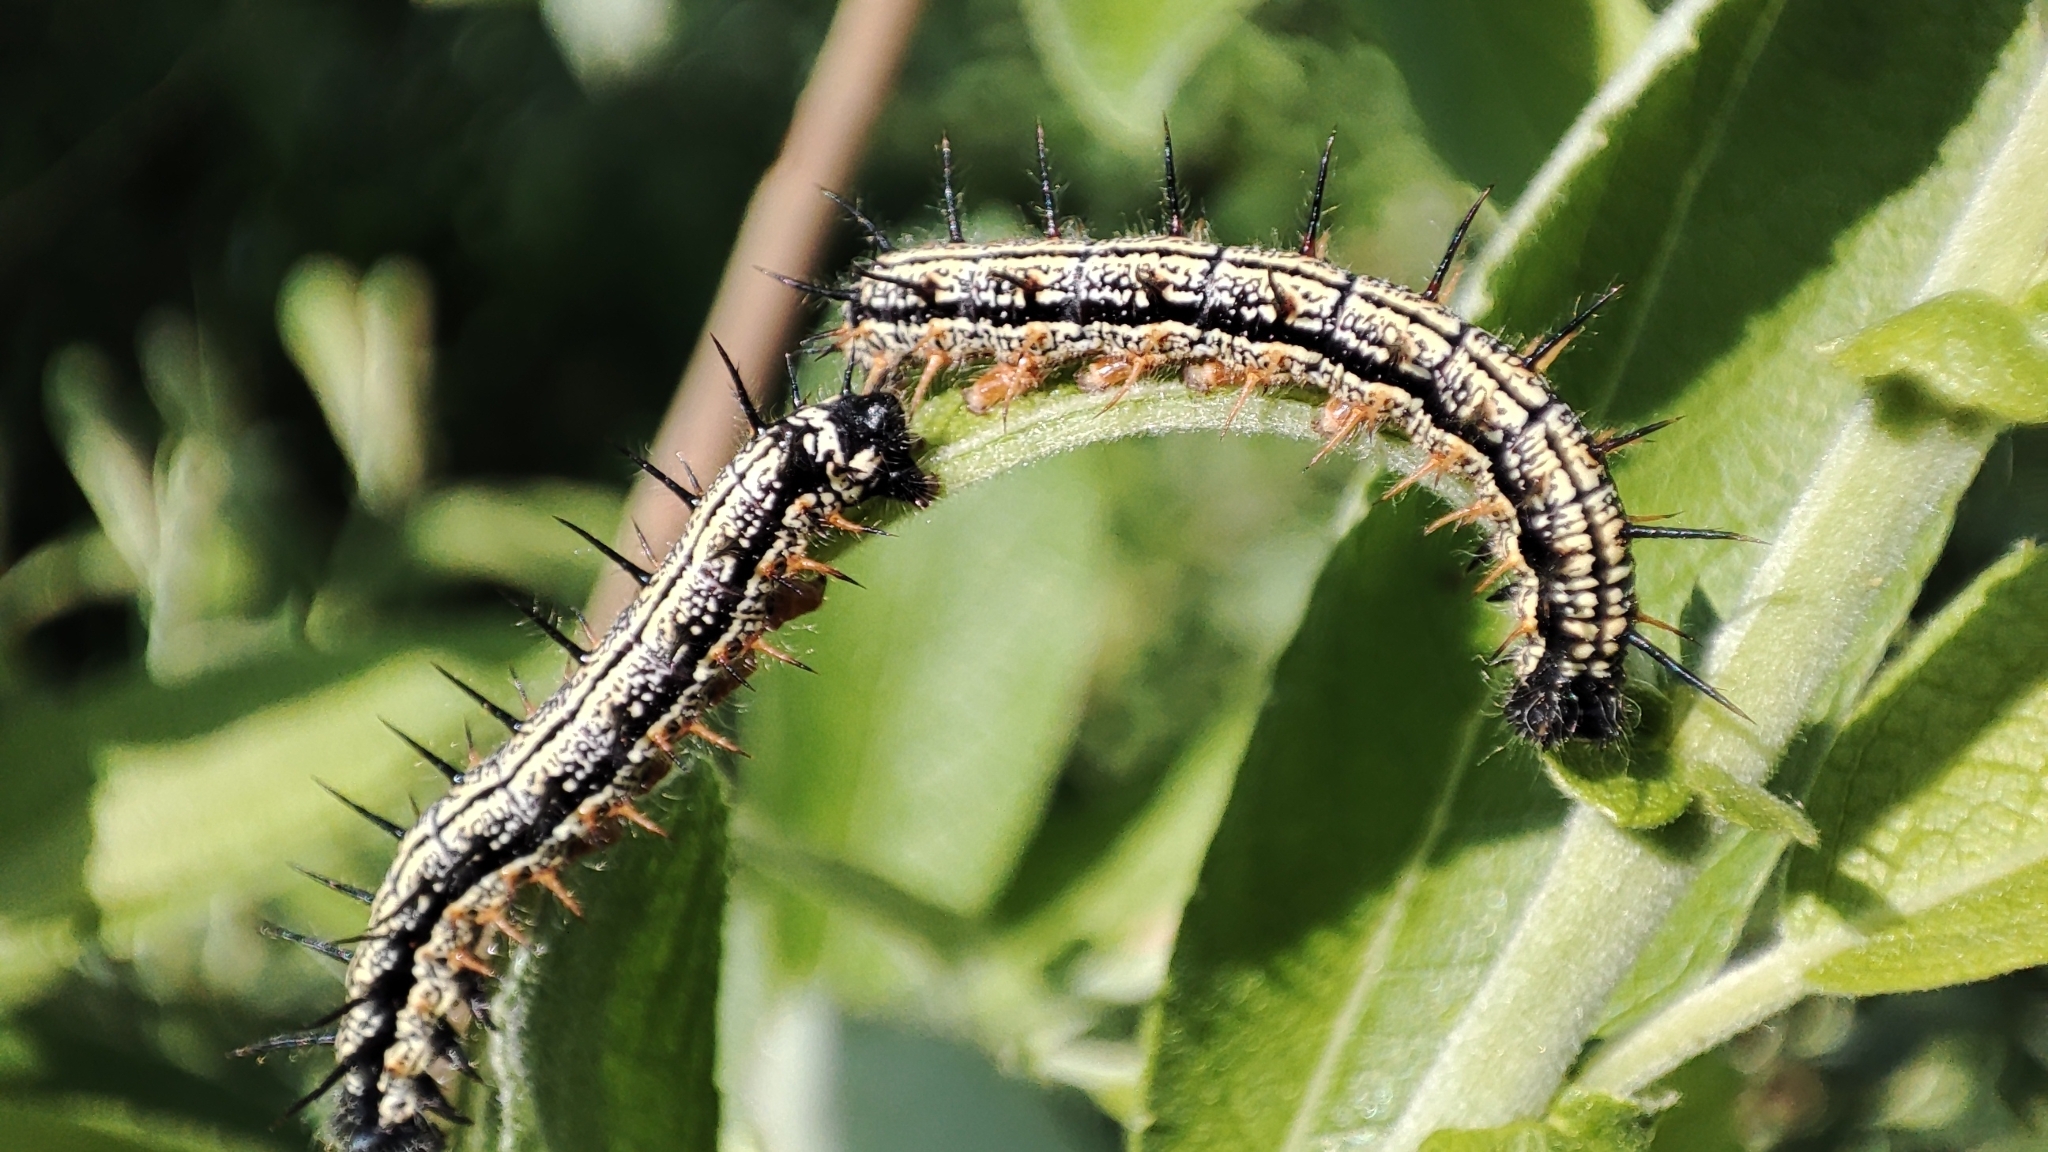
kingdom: Animalia
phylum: Arthropoda
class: Insecta
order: Lepidoptera
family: Nymphalidae
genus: Nymphalis
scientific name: Nymphalis xanthomelas
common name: Scarce tortoiseshell
